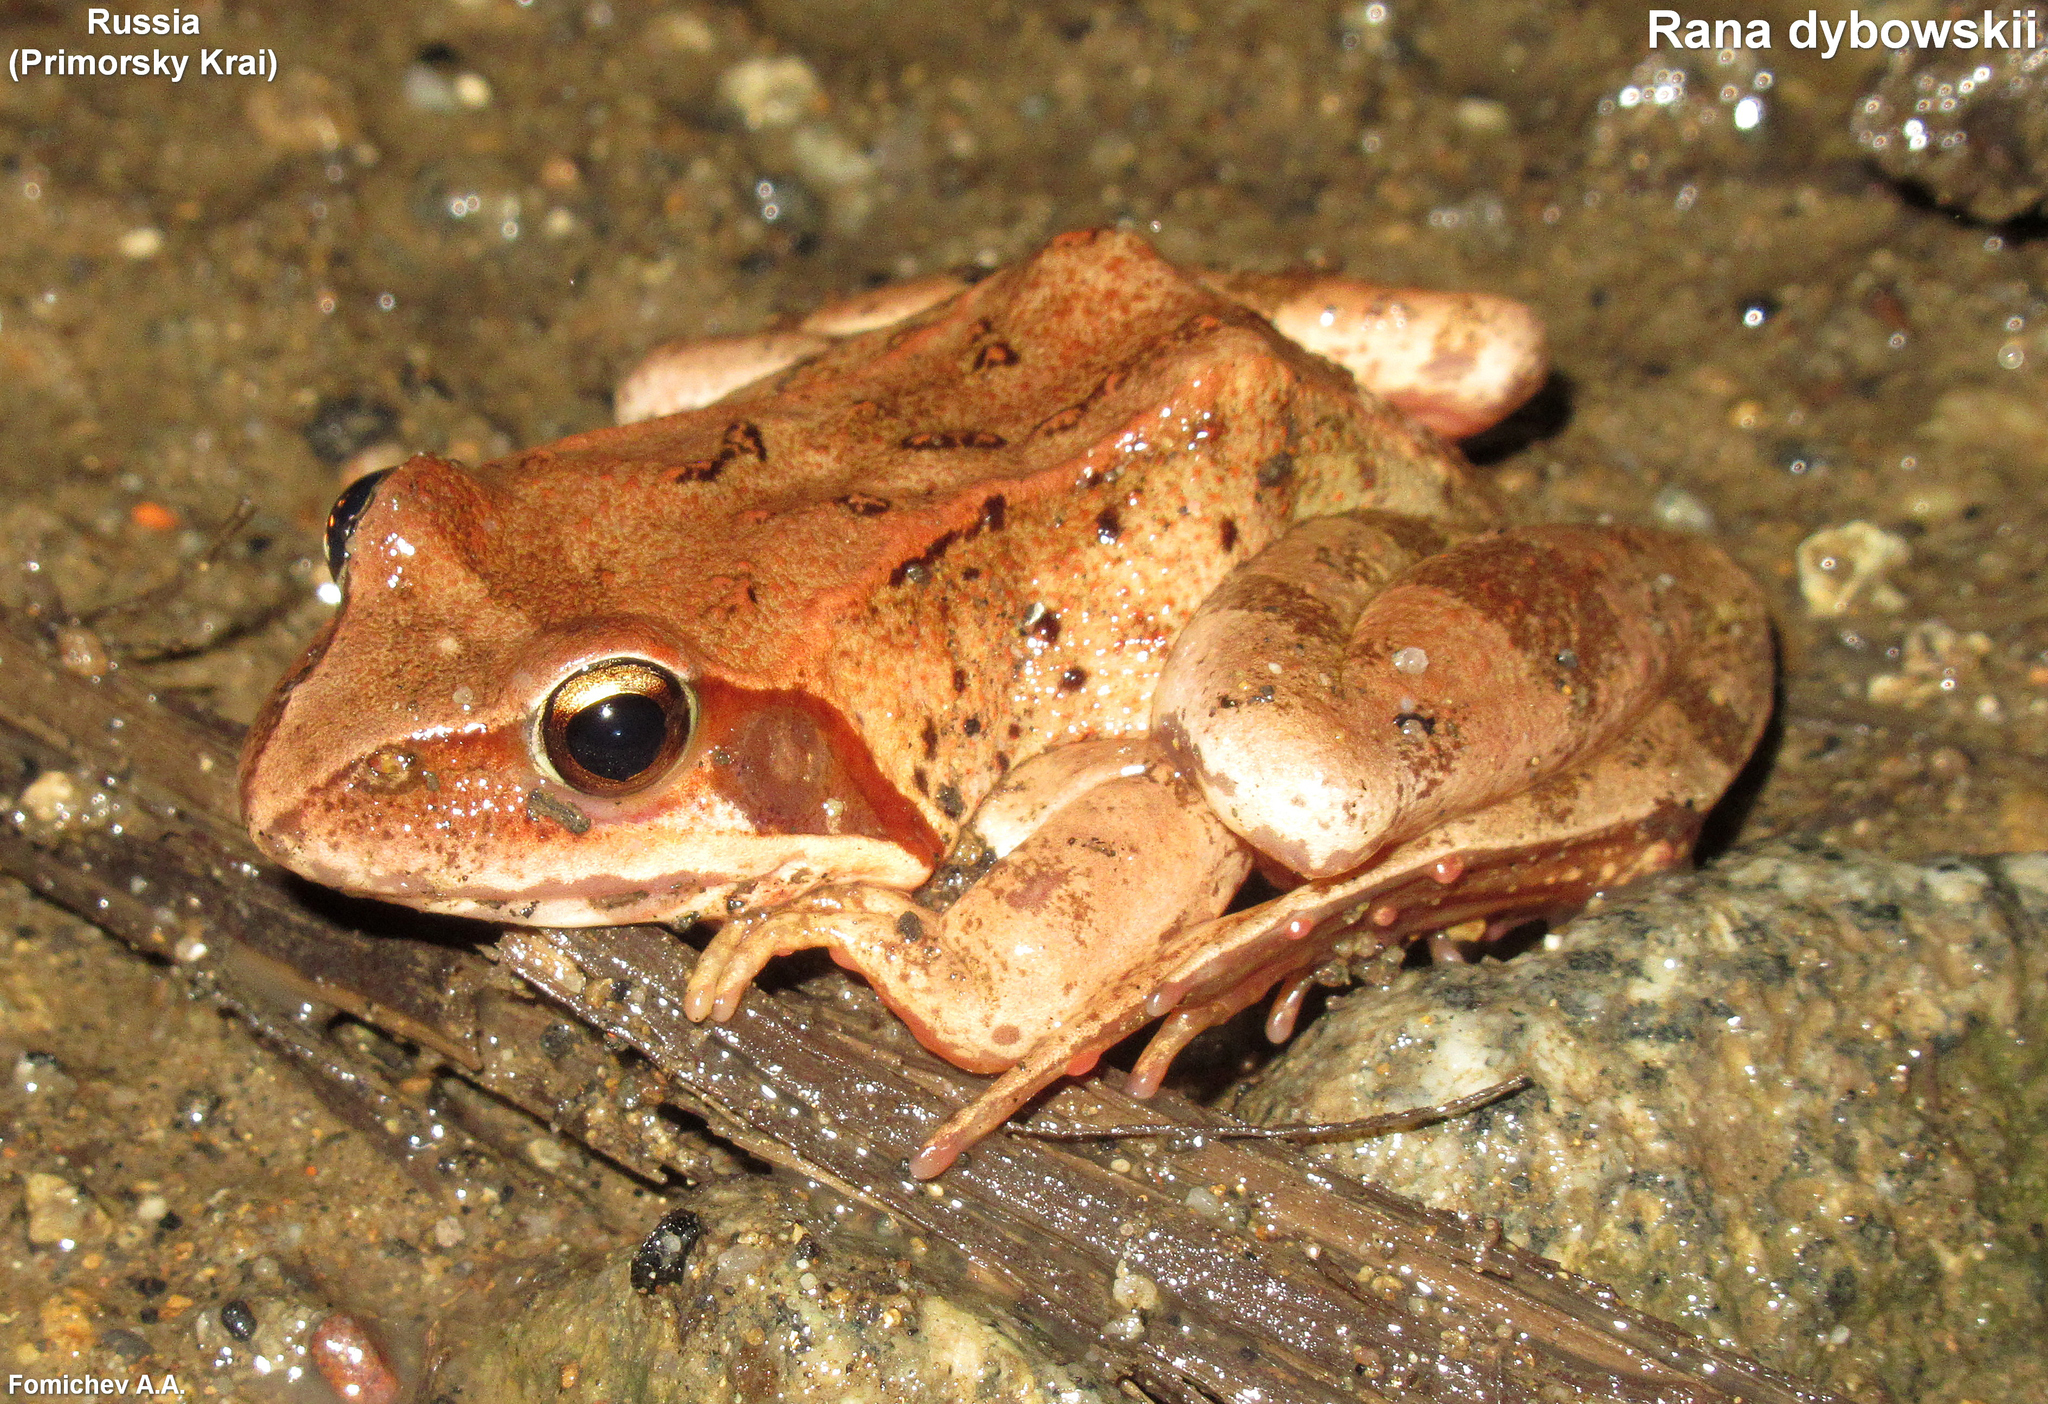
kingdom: Animalia
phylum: Chordata
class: Amphibia
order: Anura
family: Ranidae
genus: Rana
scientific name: Rana dybowskii
